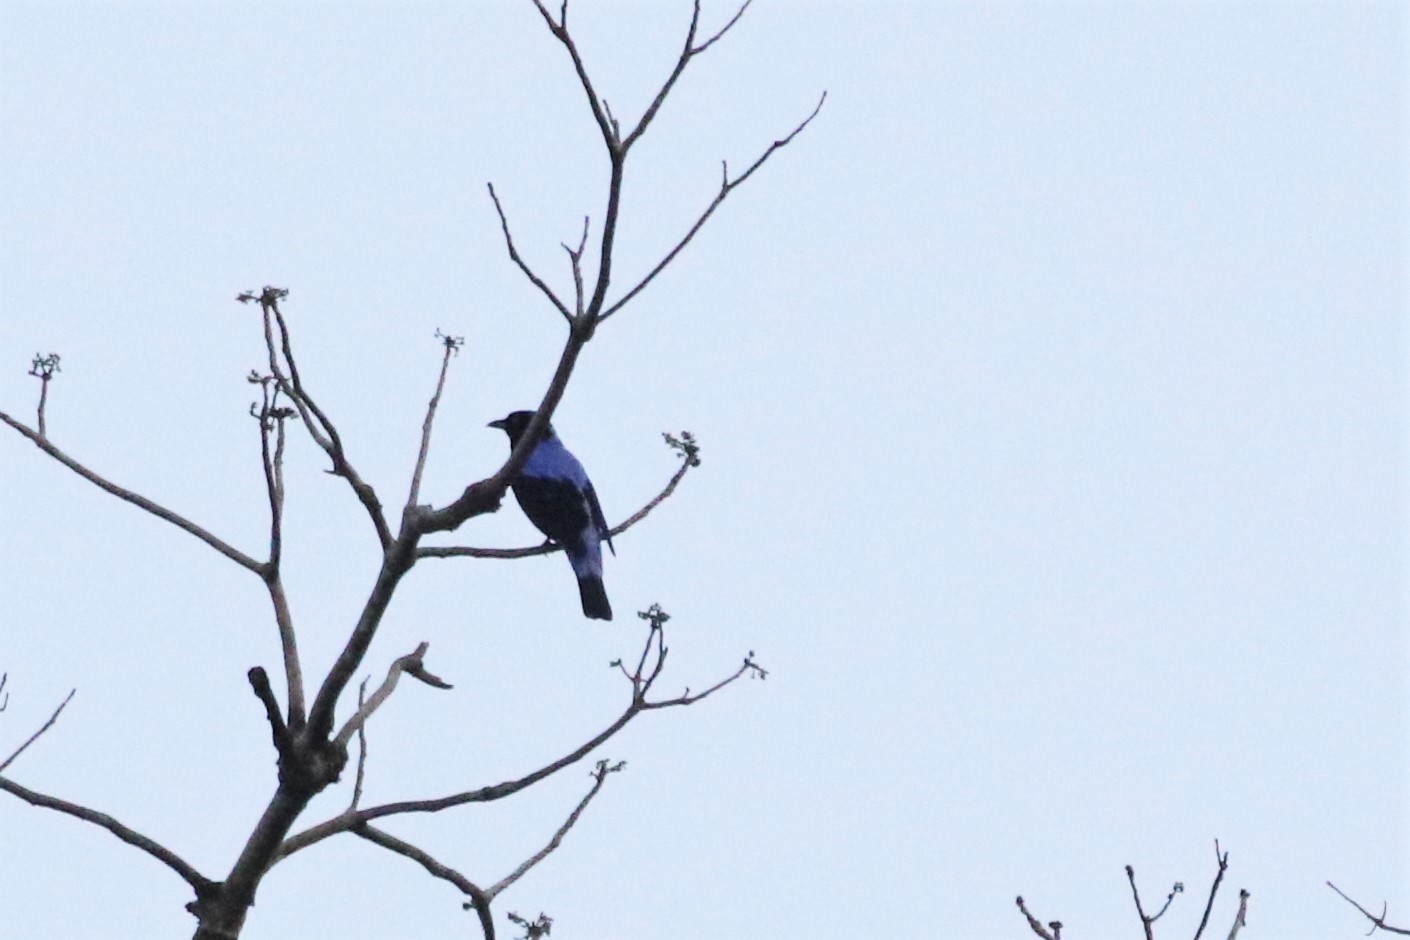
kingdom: Animalia
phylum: Chordata
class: Aves
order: Passeriformes
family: Irenidae
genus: Irena
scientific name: Irena puella
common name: Asian fairy-bluebird
